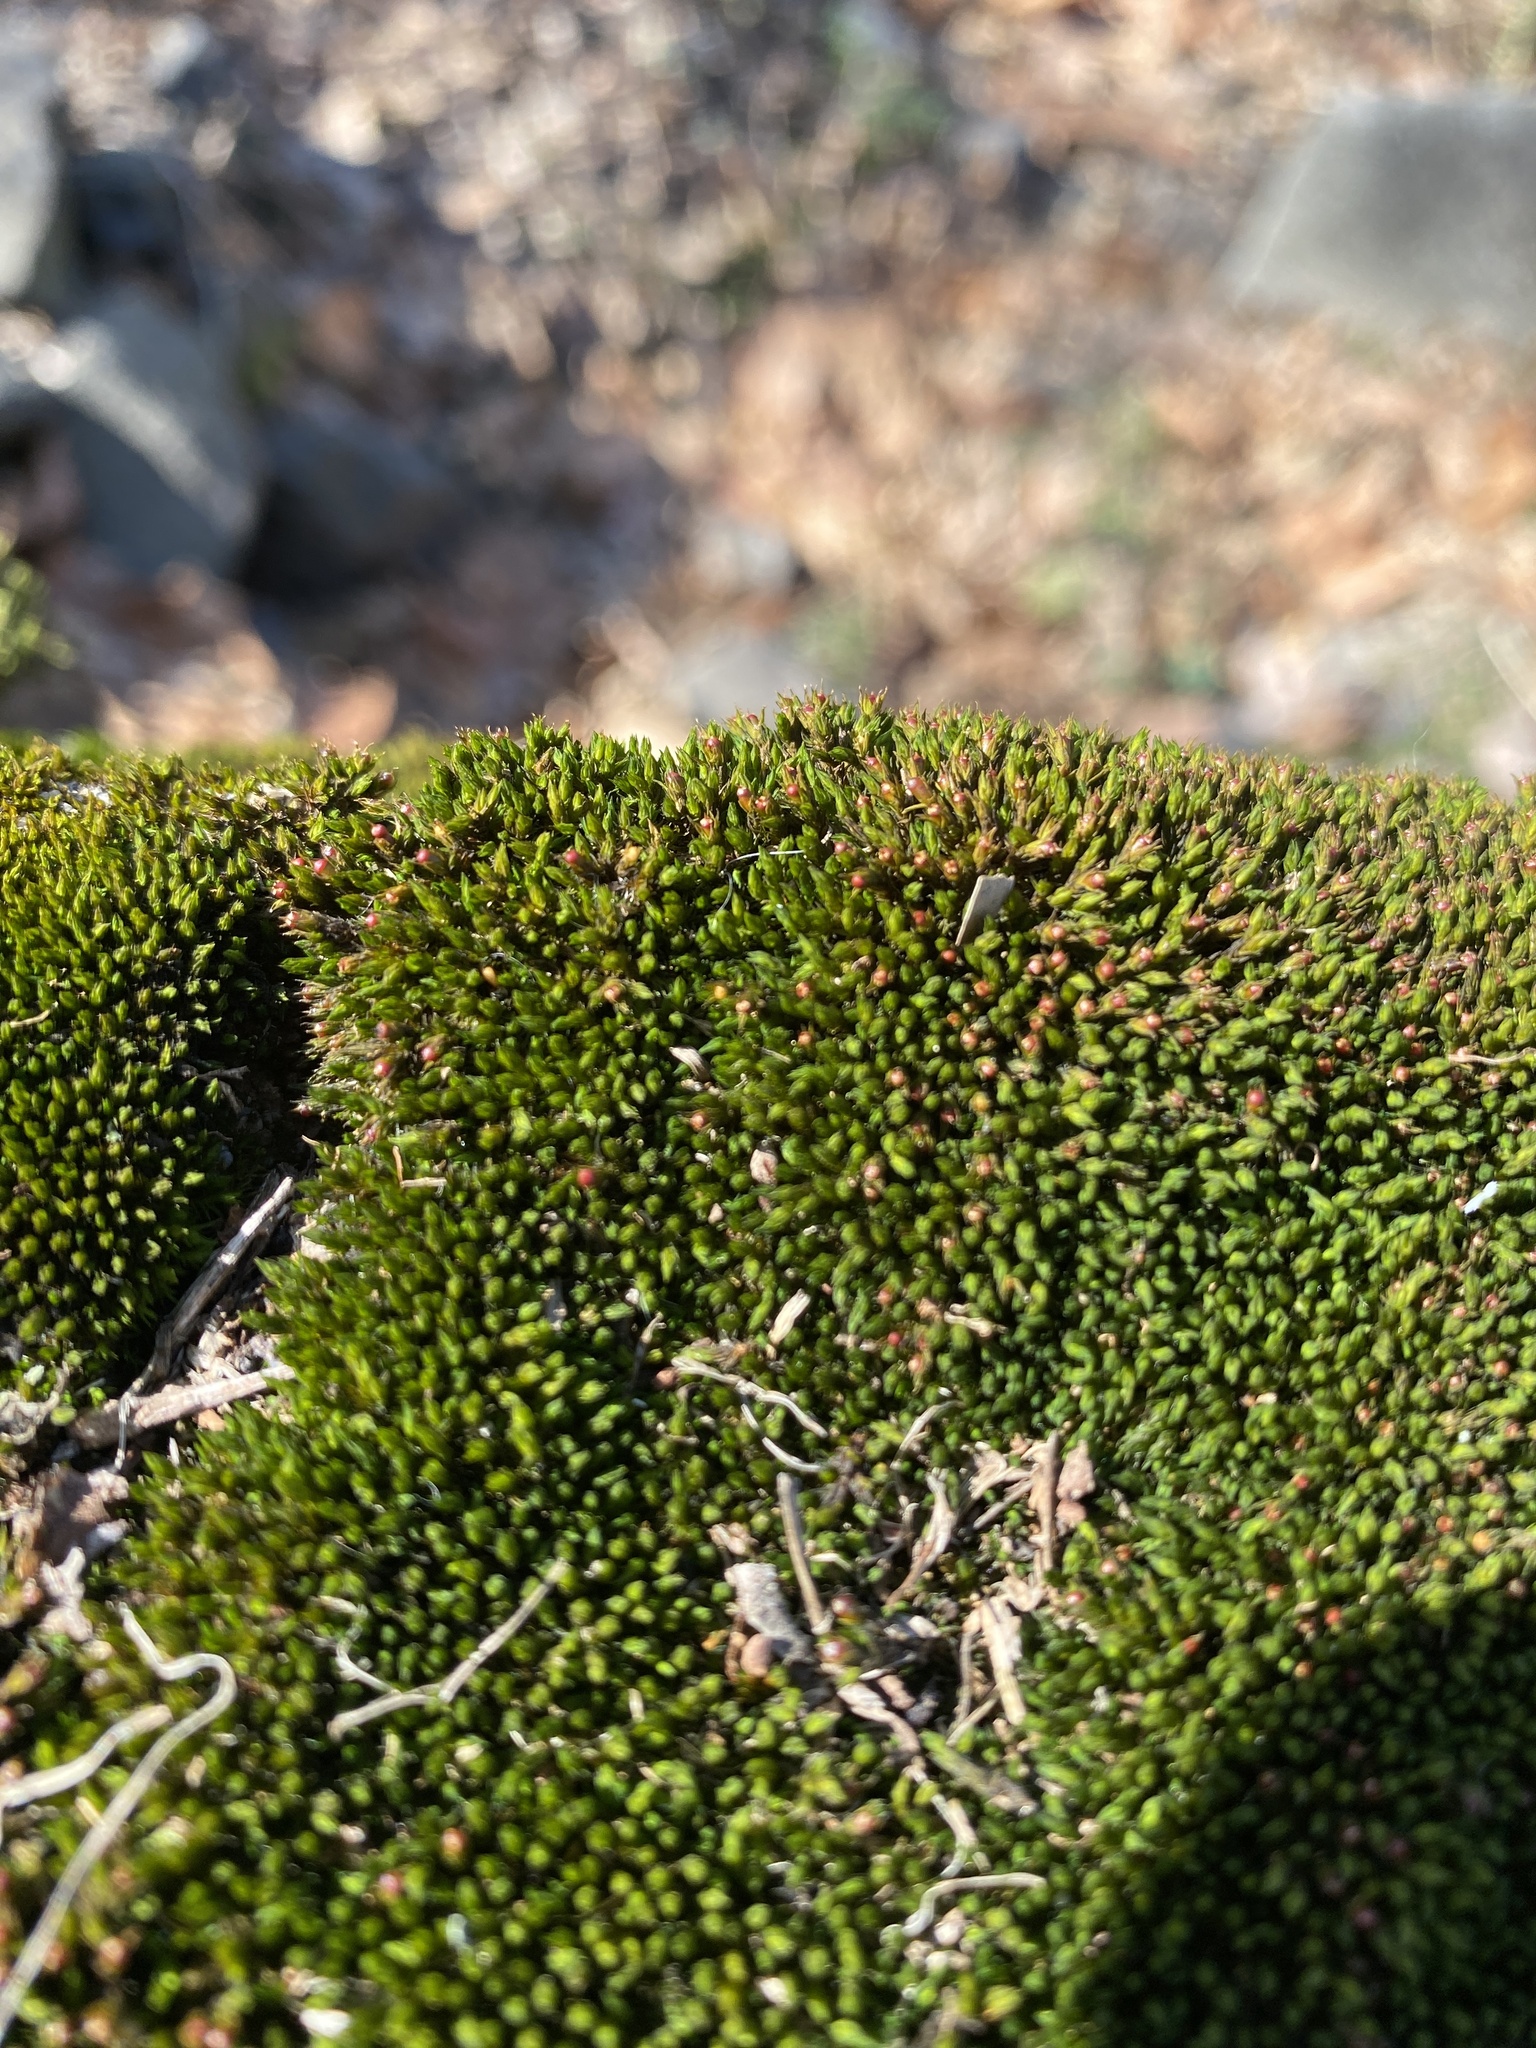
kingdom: Plantae
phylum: Bryophyta
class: Bryopsida
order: Grimmiales
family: Grimmiaceae
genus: Schistidium
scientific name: Schistidium apocarpum
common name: Radiate bloom moss
